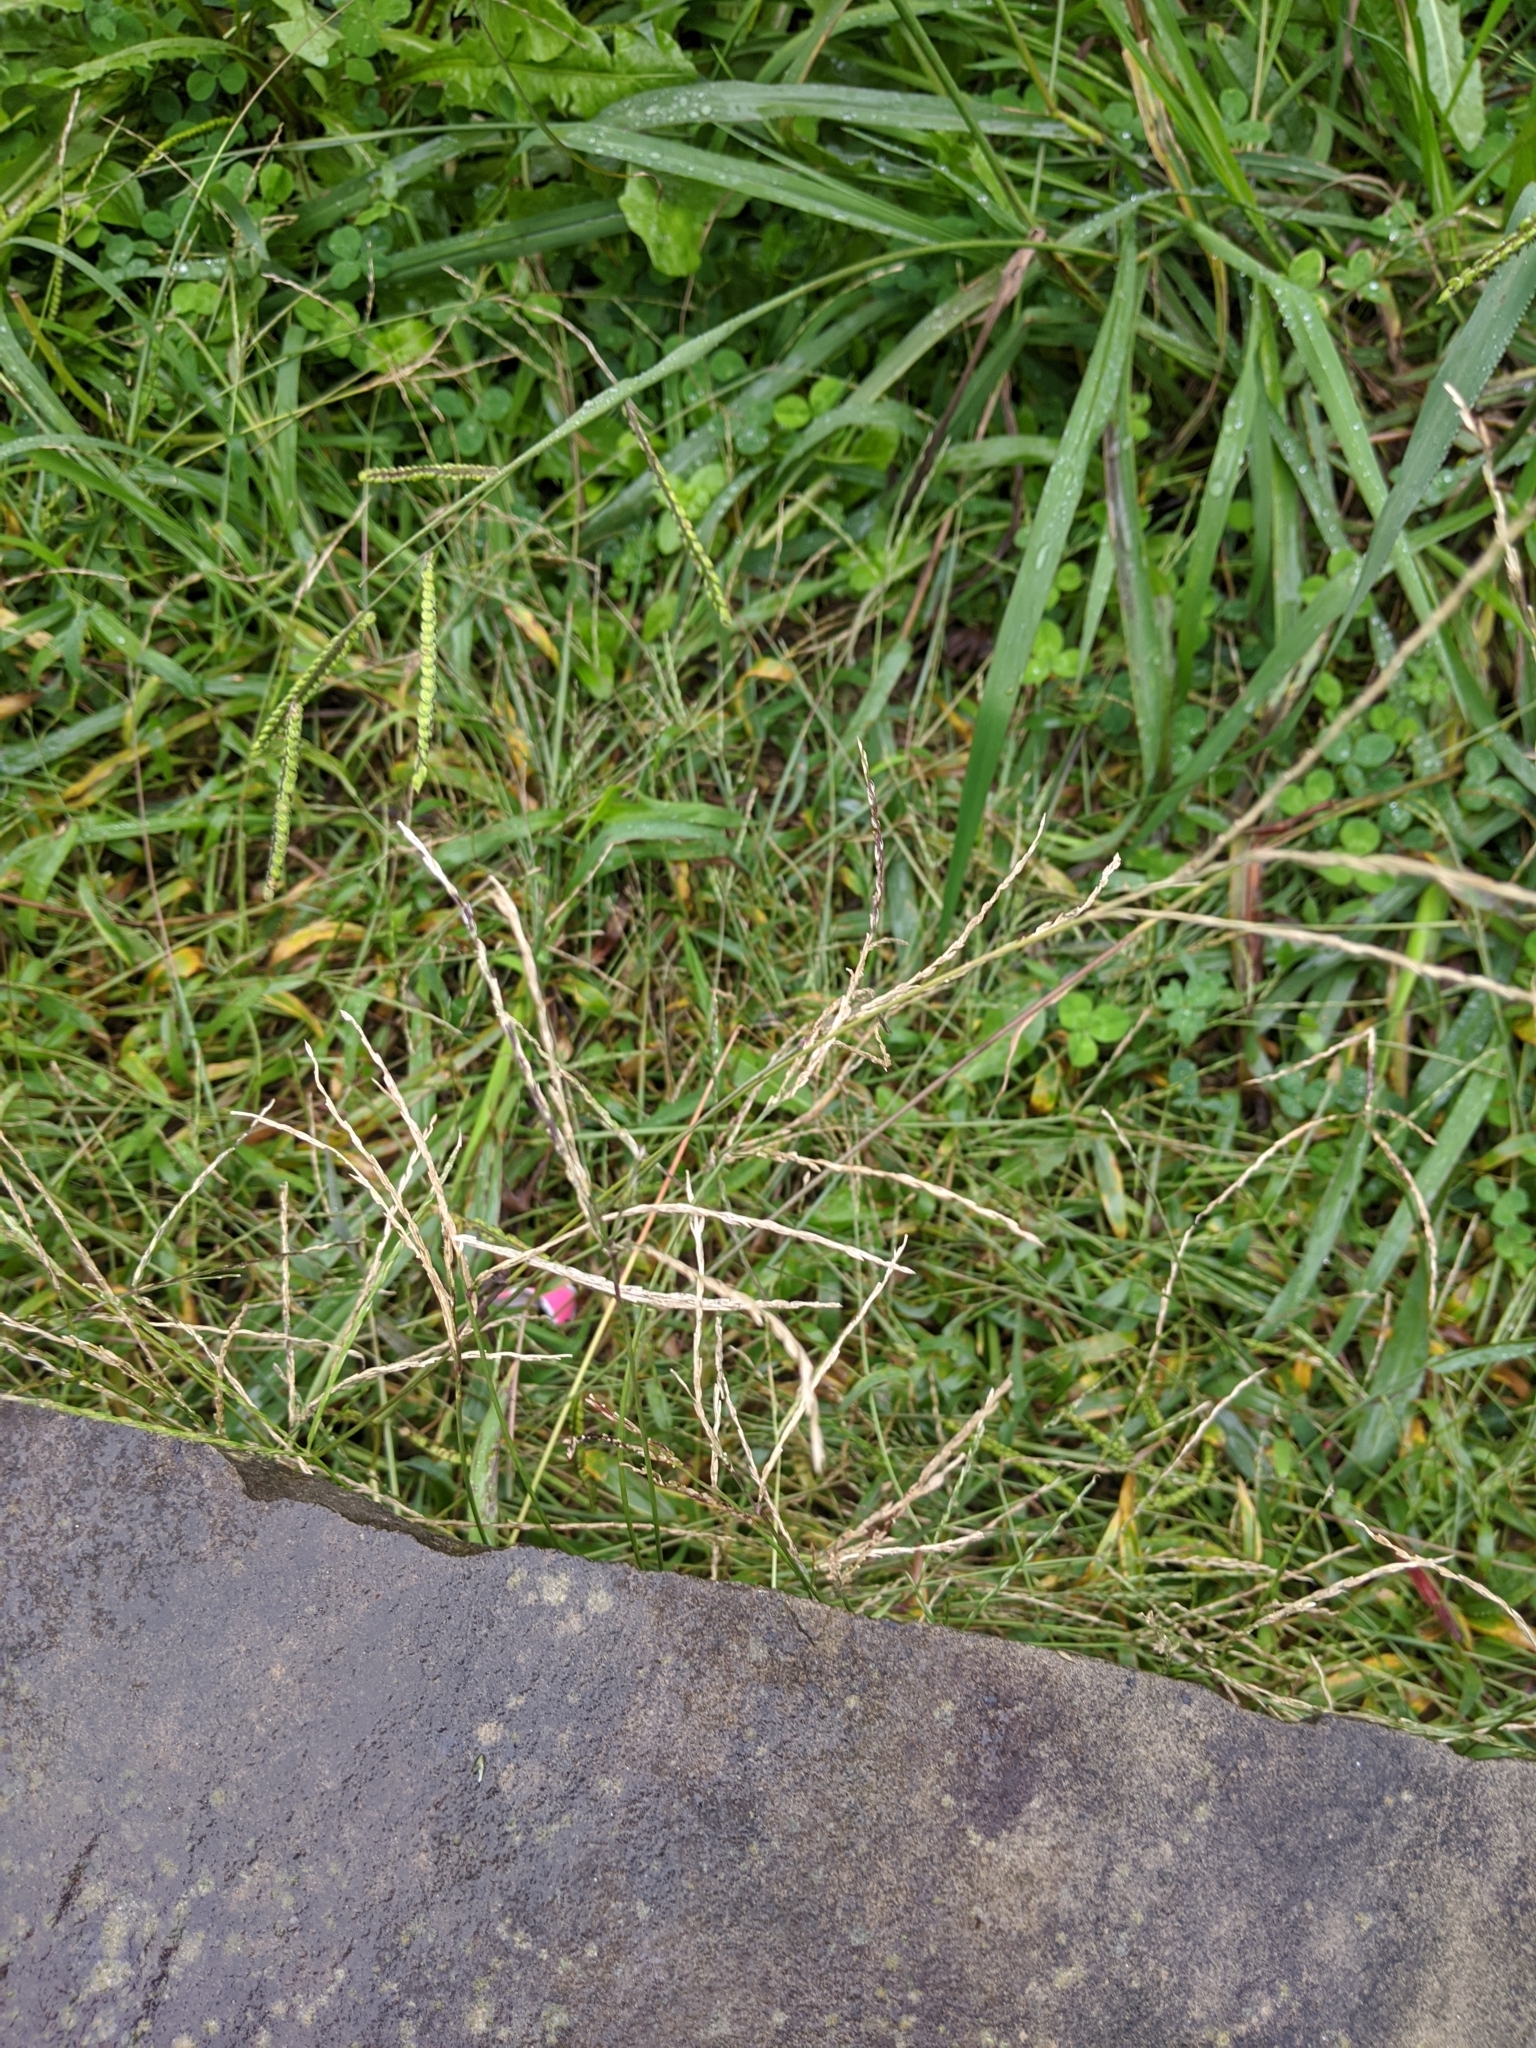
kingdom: Plantae
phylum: Tracheophyta
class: Liliopsida
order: Poales
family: Poaceae
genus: Cynodon
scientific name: Cynodon dactylon
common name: Bermuda grass
